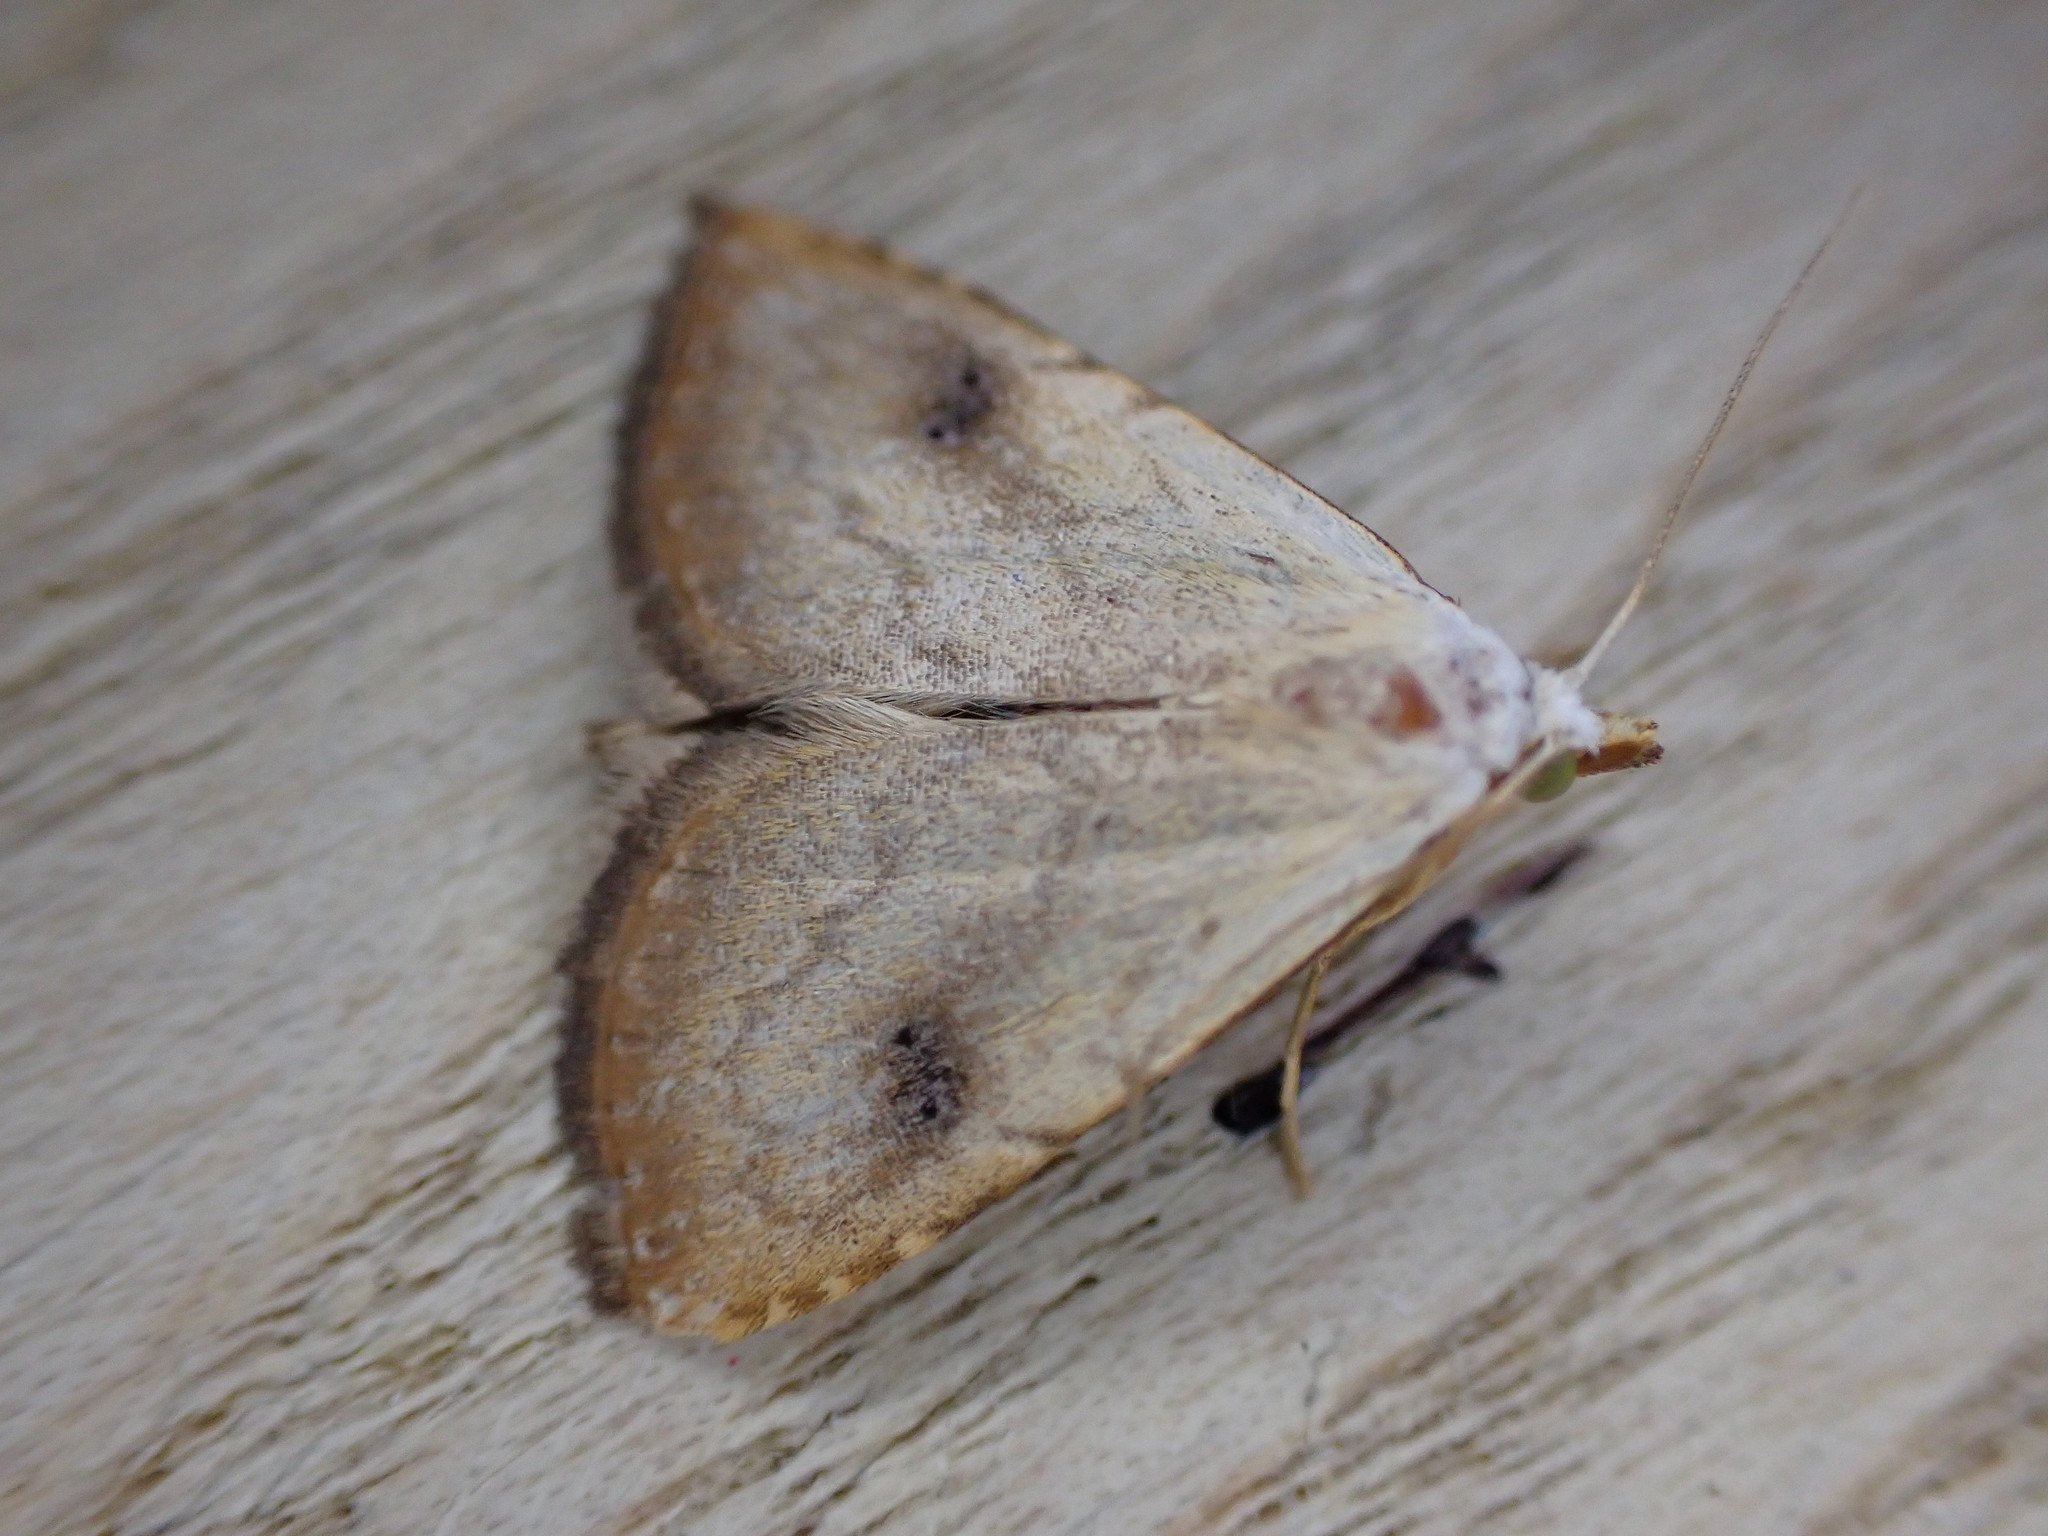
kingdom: Animalia
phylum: Arthropoda
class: Insecta
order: Lepidoptera
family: Erebidae
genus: Rivula
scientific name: Rivula sericealis
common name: Straw dot
